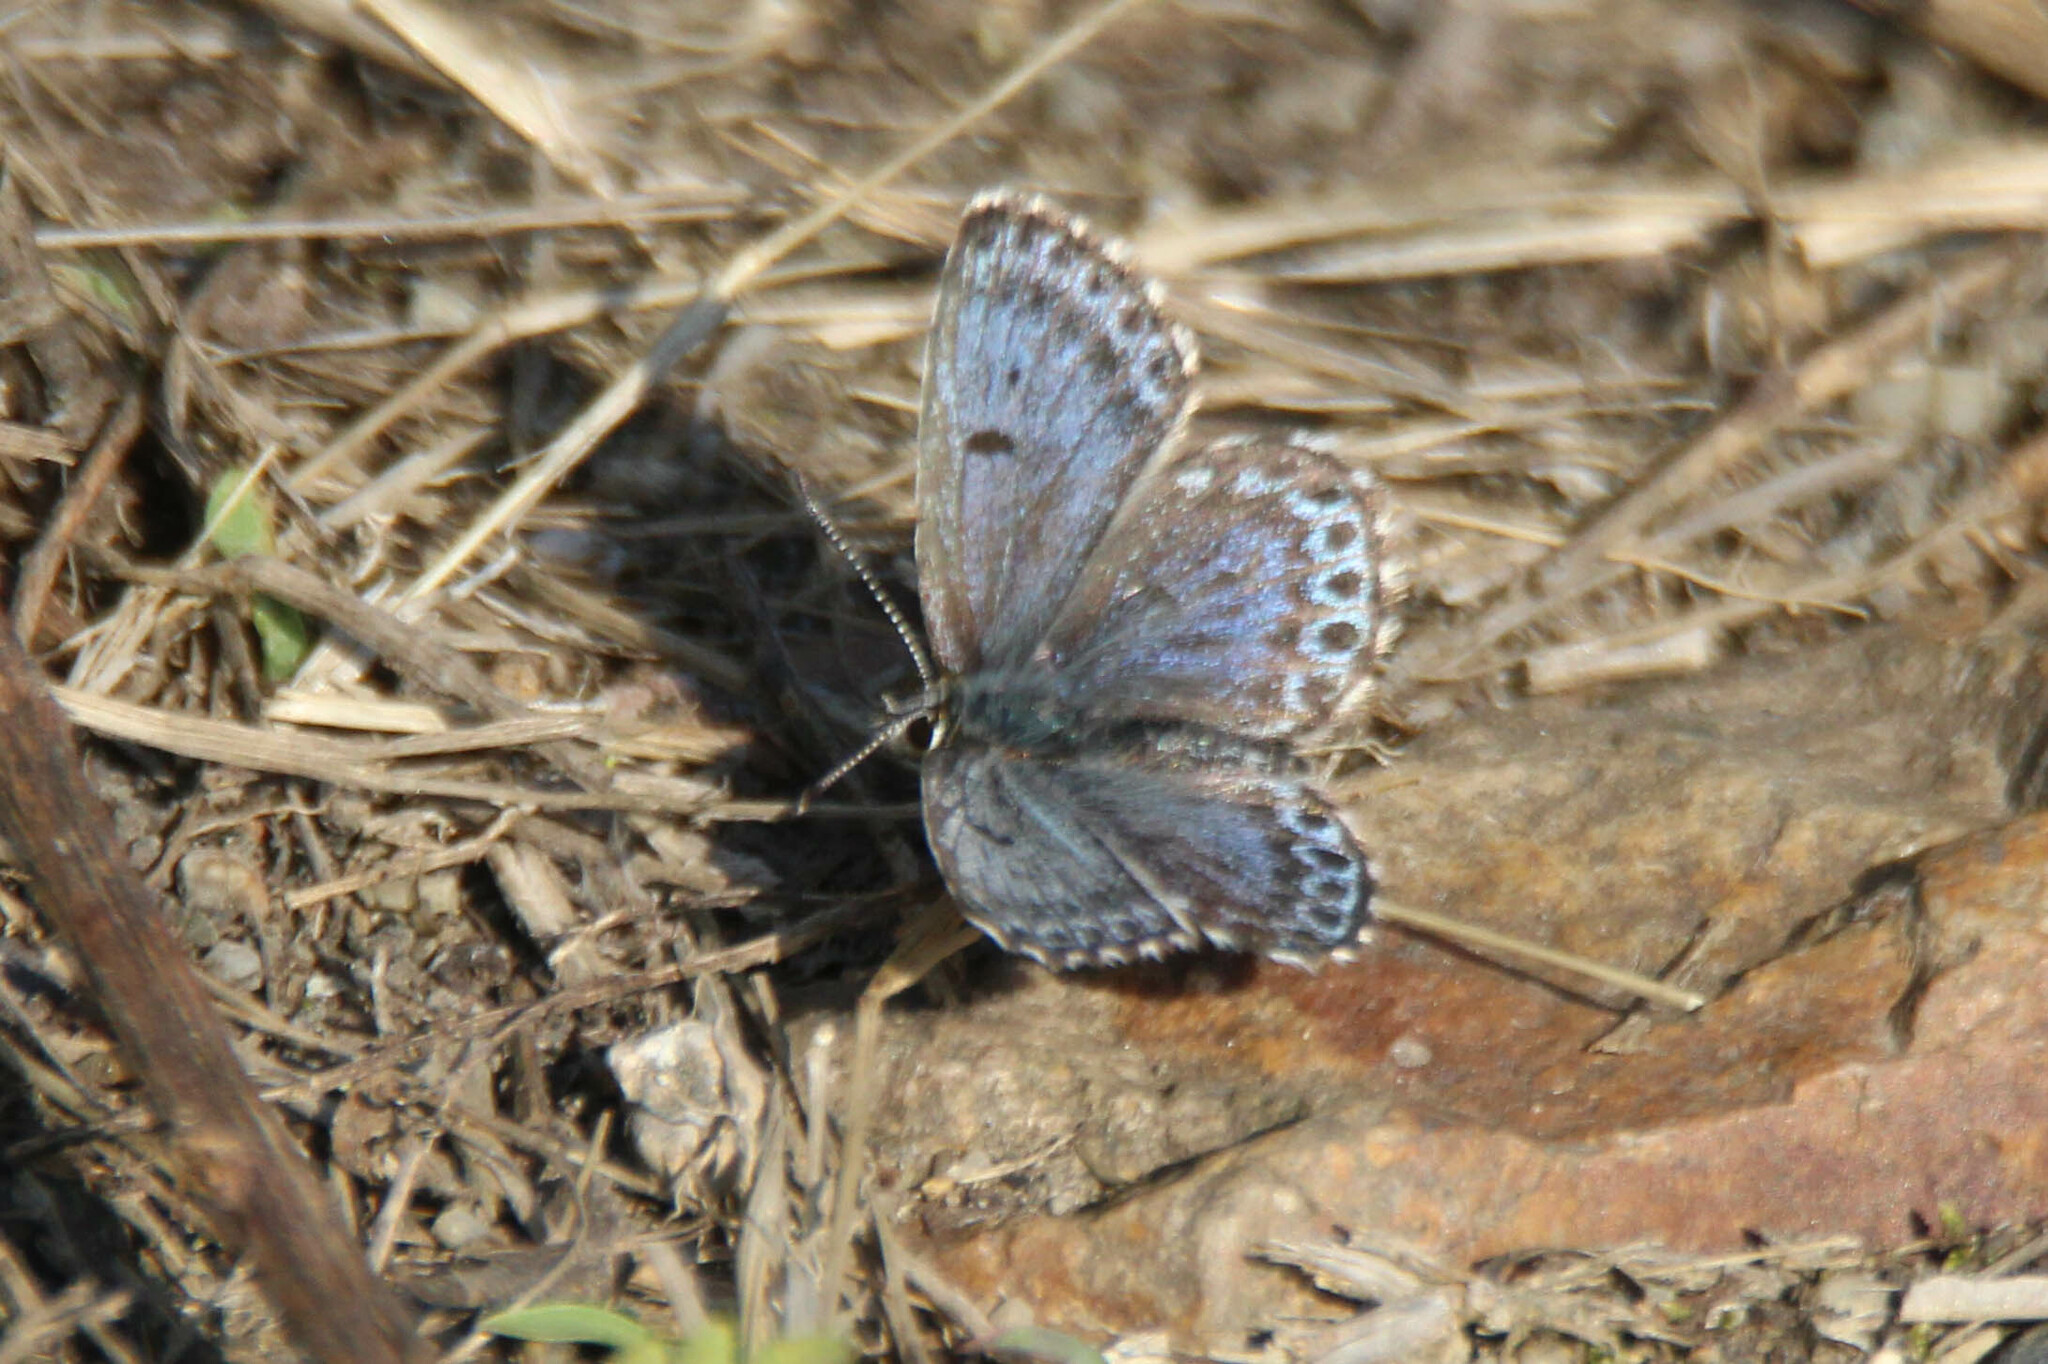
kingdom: Animalia
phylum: Arthropoda
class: Insecta
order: Lepidoptera
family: Lycaenidae
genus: Scolitantides
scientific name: Scolitantides orion
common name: Chequered blue
